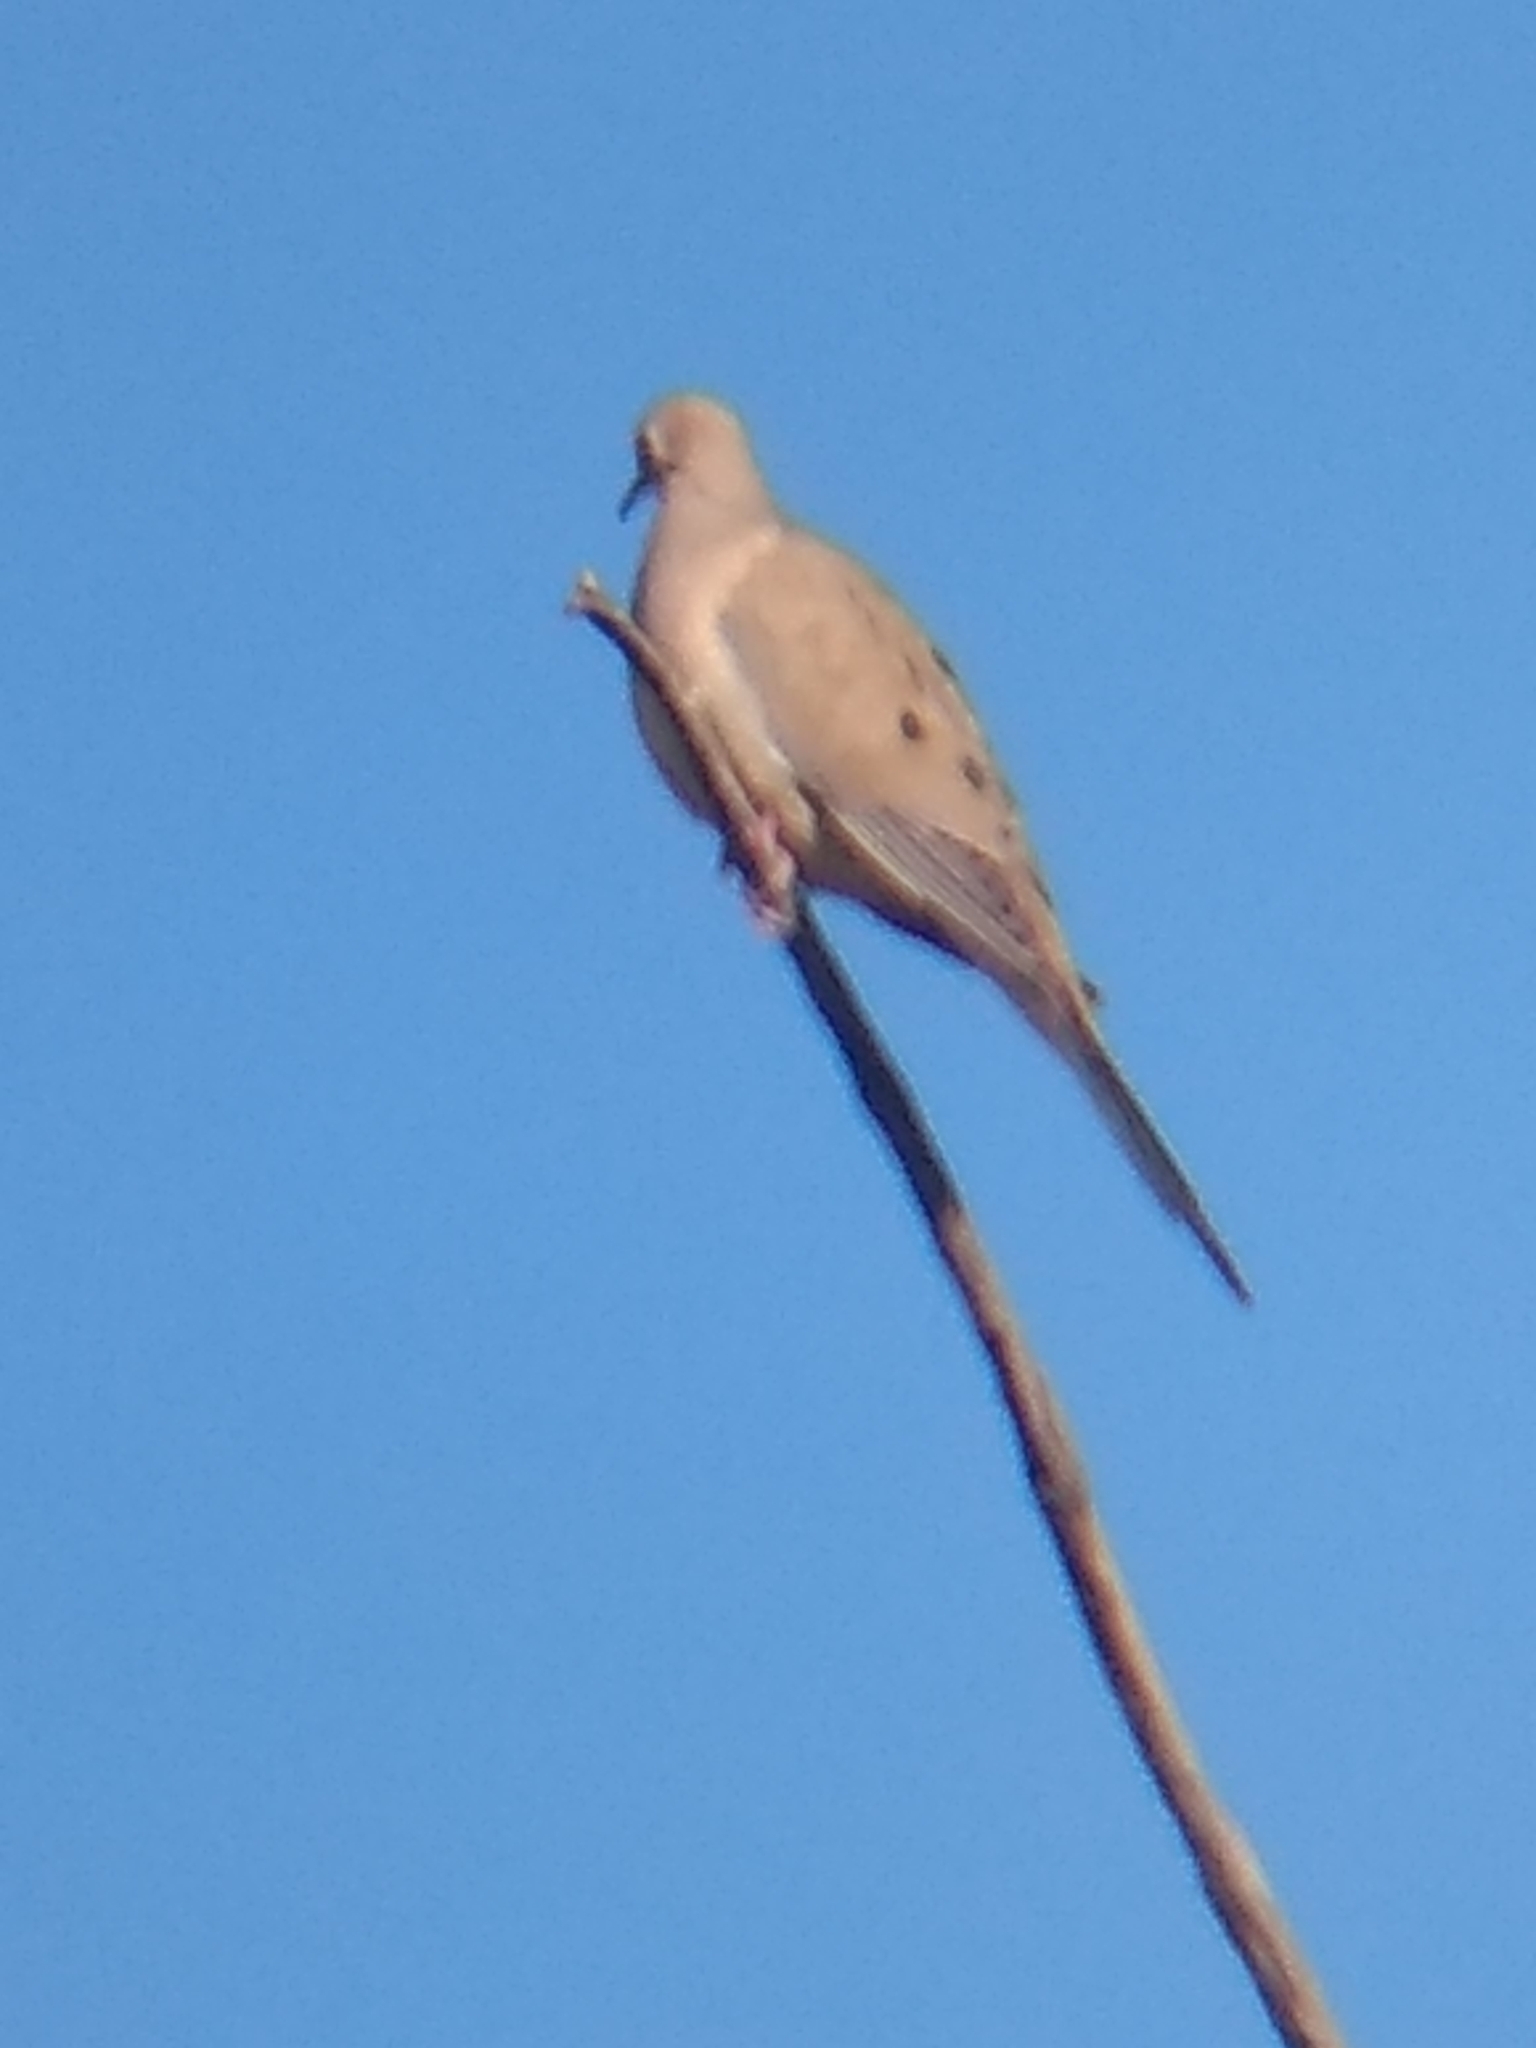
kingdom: Animalia
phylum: Chordata
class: Aves
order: Columbiformes
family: Columbidae
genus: Zenaida
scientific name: Zenaida macroura
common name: Mourning dove
